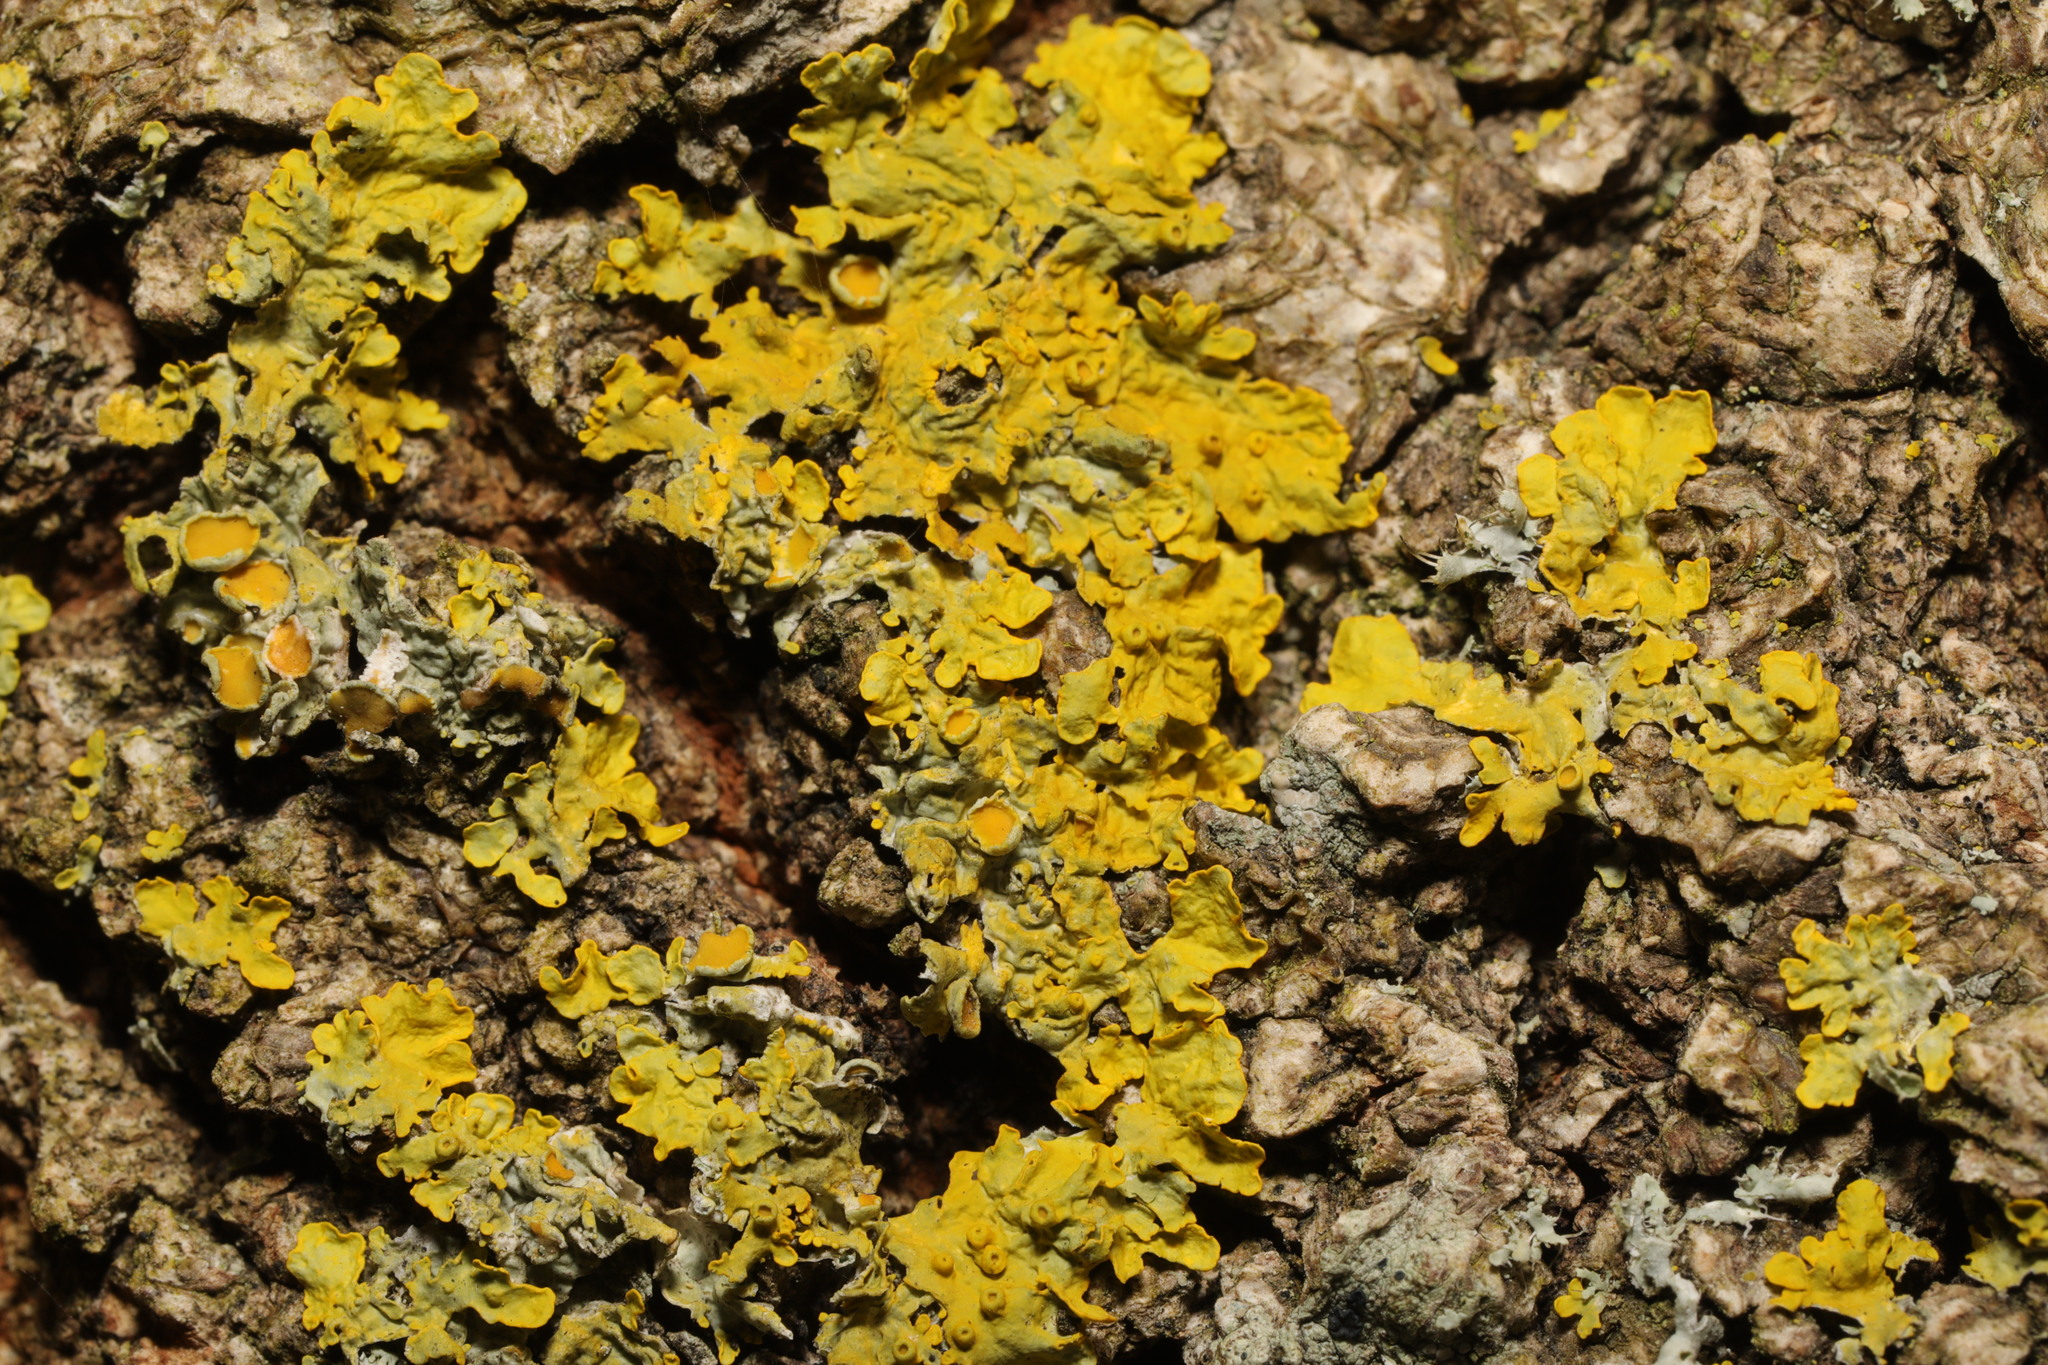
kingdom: Fungi
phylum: Ascomycota
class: Lecanoromycetes
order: Teloschistales
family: Teloschistaceae
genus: Xanthoria
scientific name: Xanthoria parietina
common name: Common orange lichen
